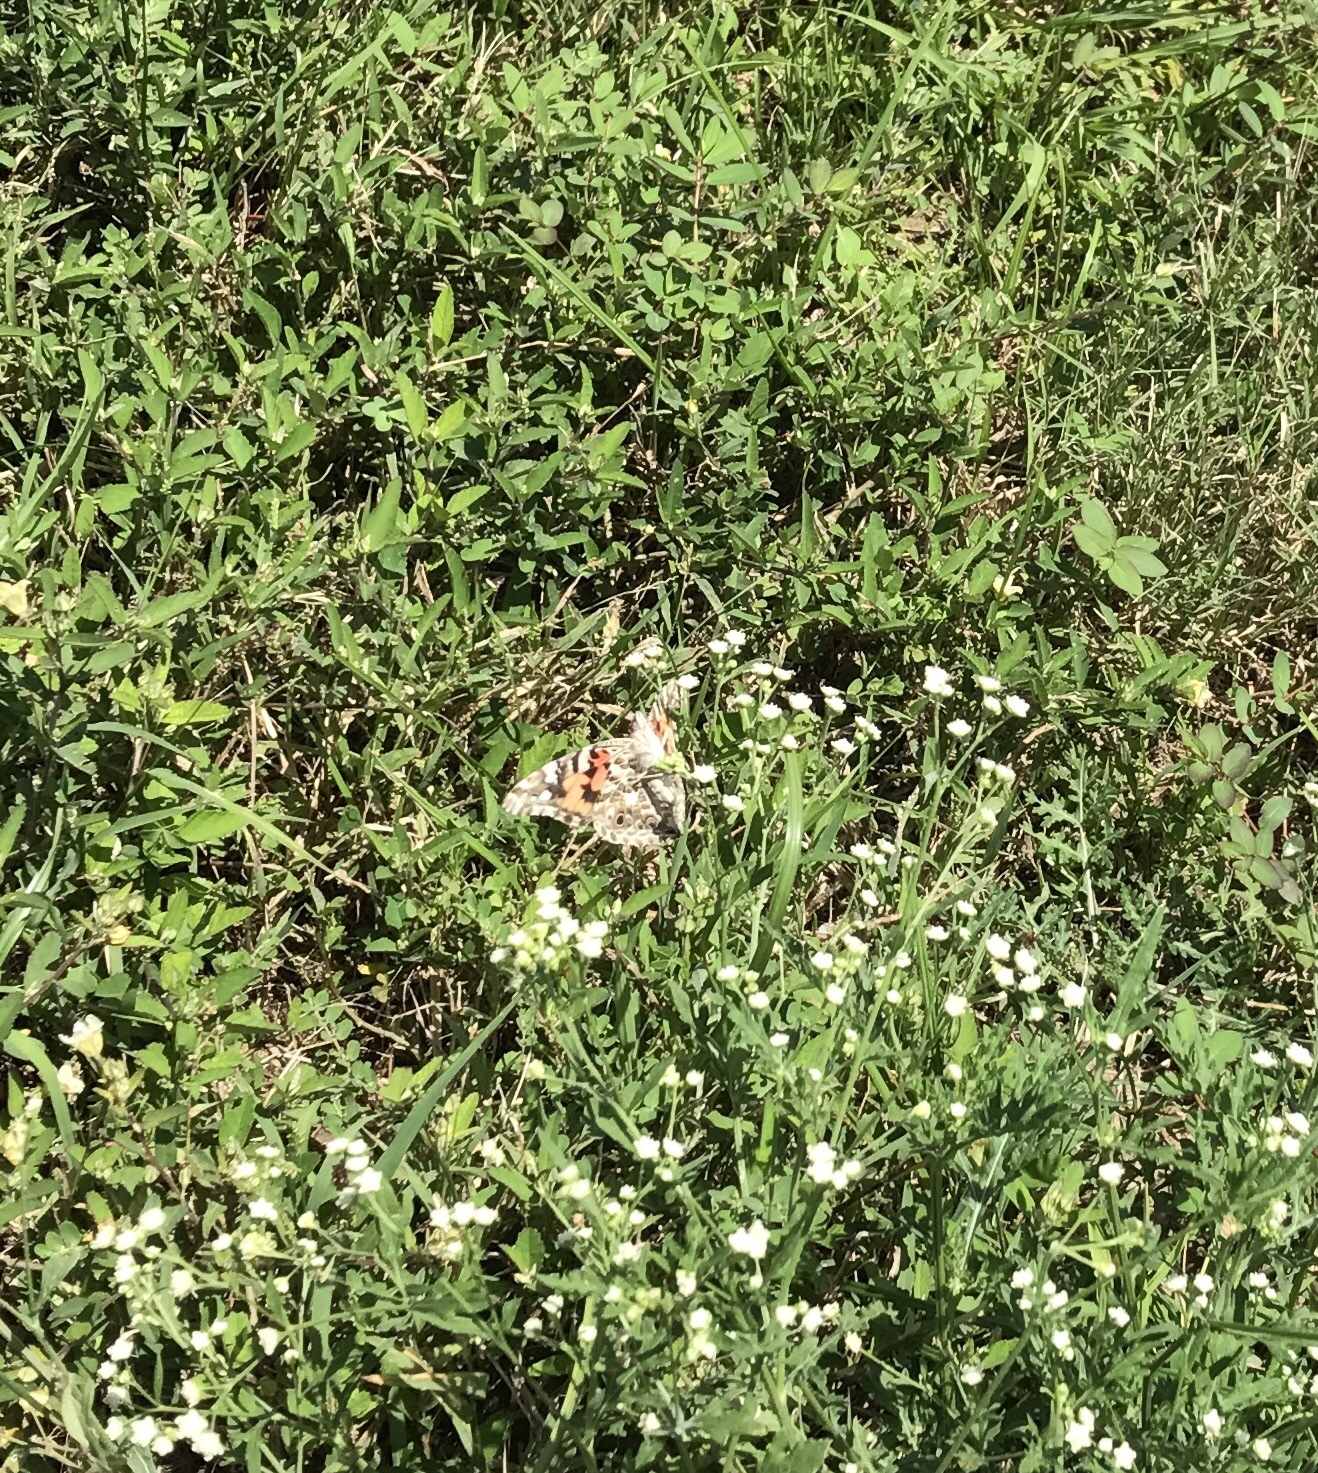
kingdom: Animalia
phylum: Arthropoda
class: Insecta
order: Lepidoptera
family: Nymphalidae
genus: Vanessa
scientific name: Vanessa cardui
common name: Painted lady
